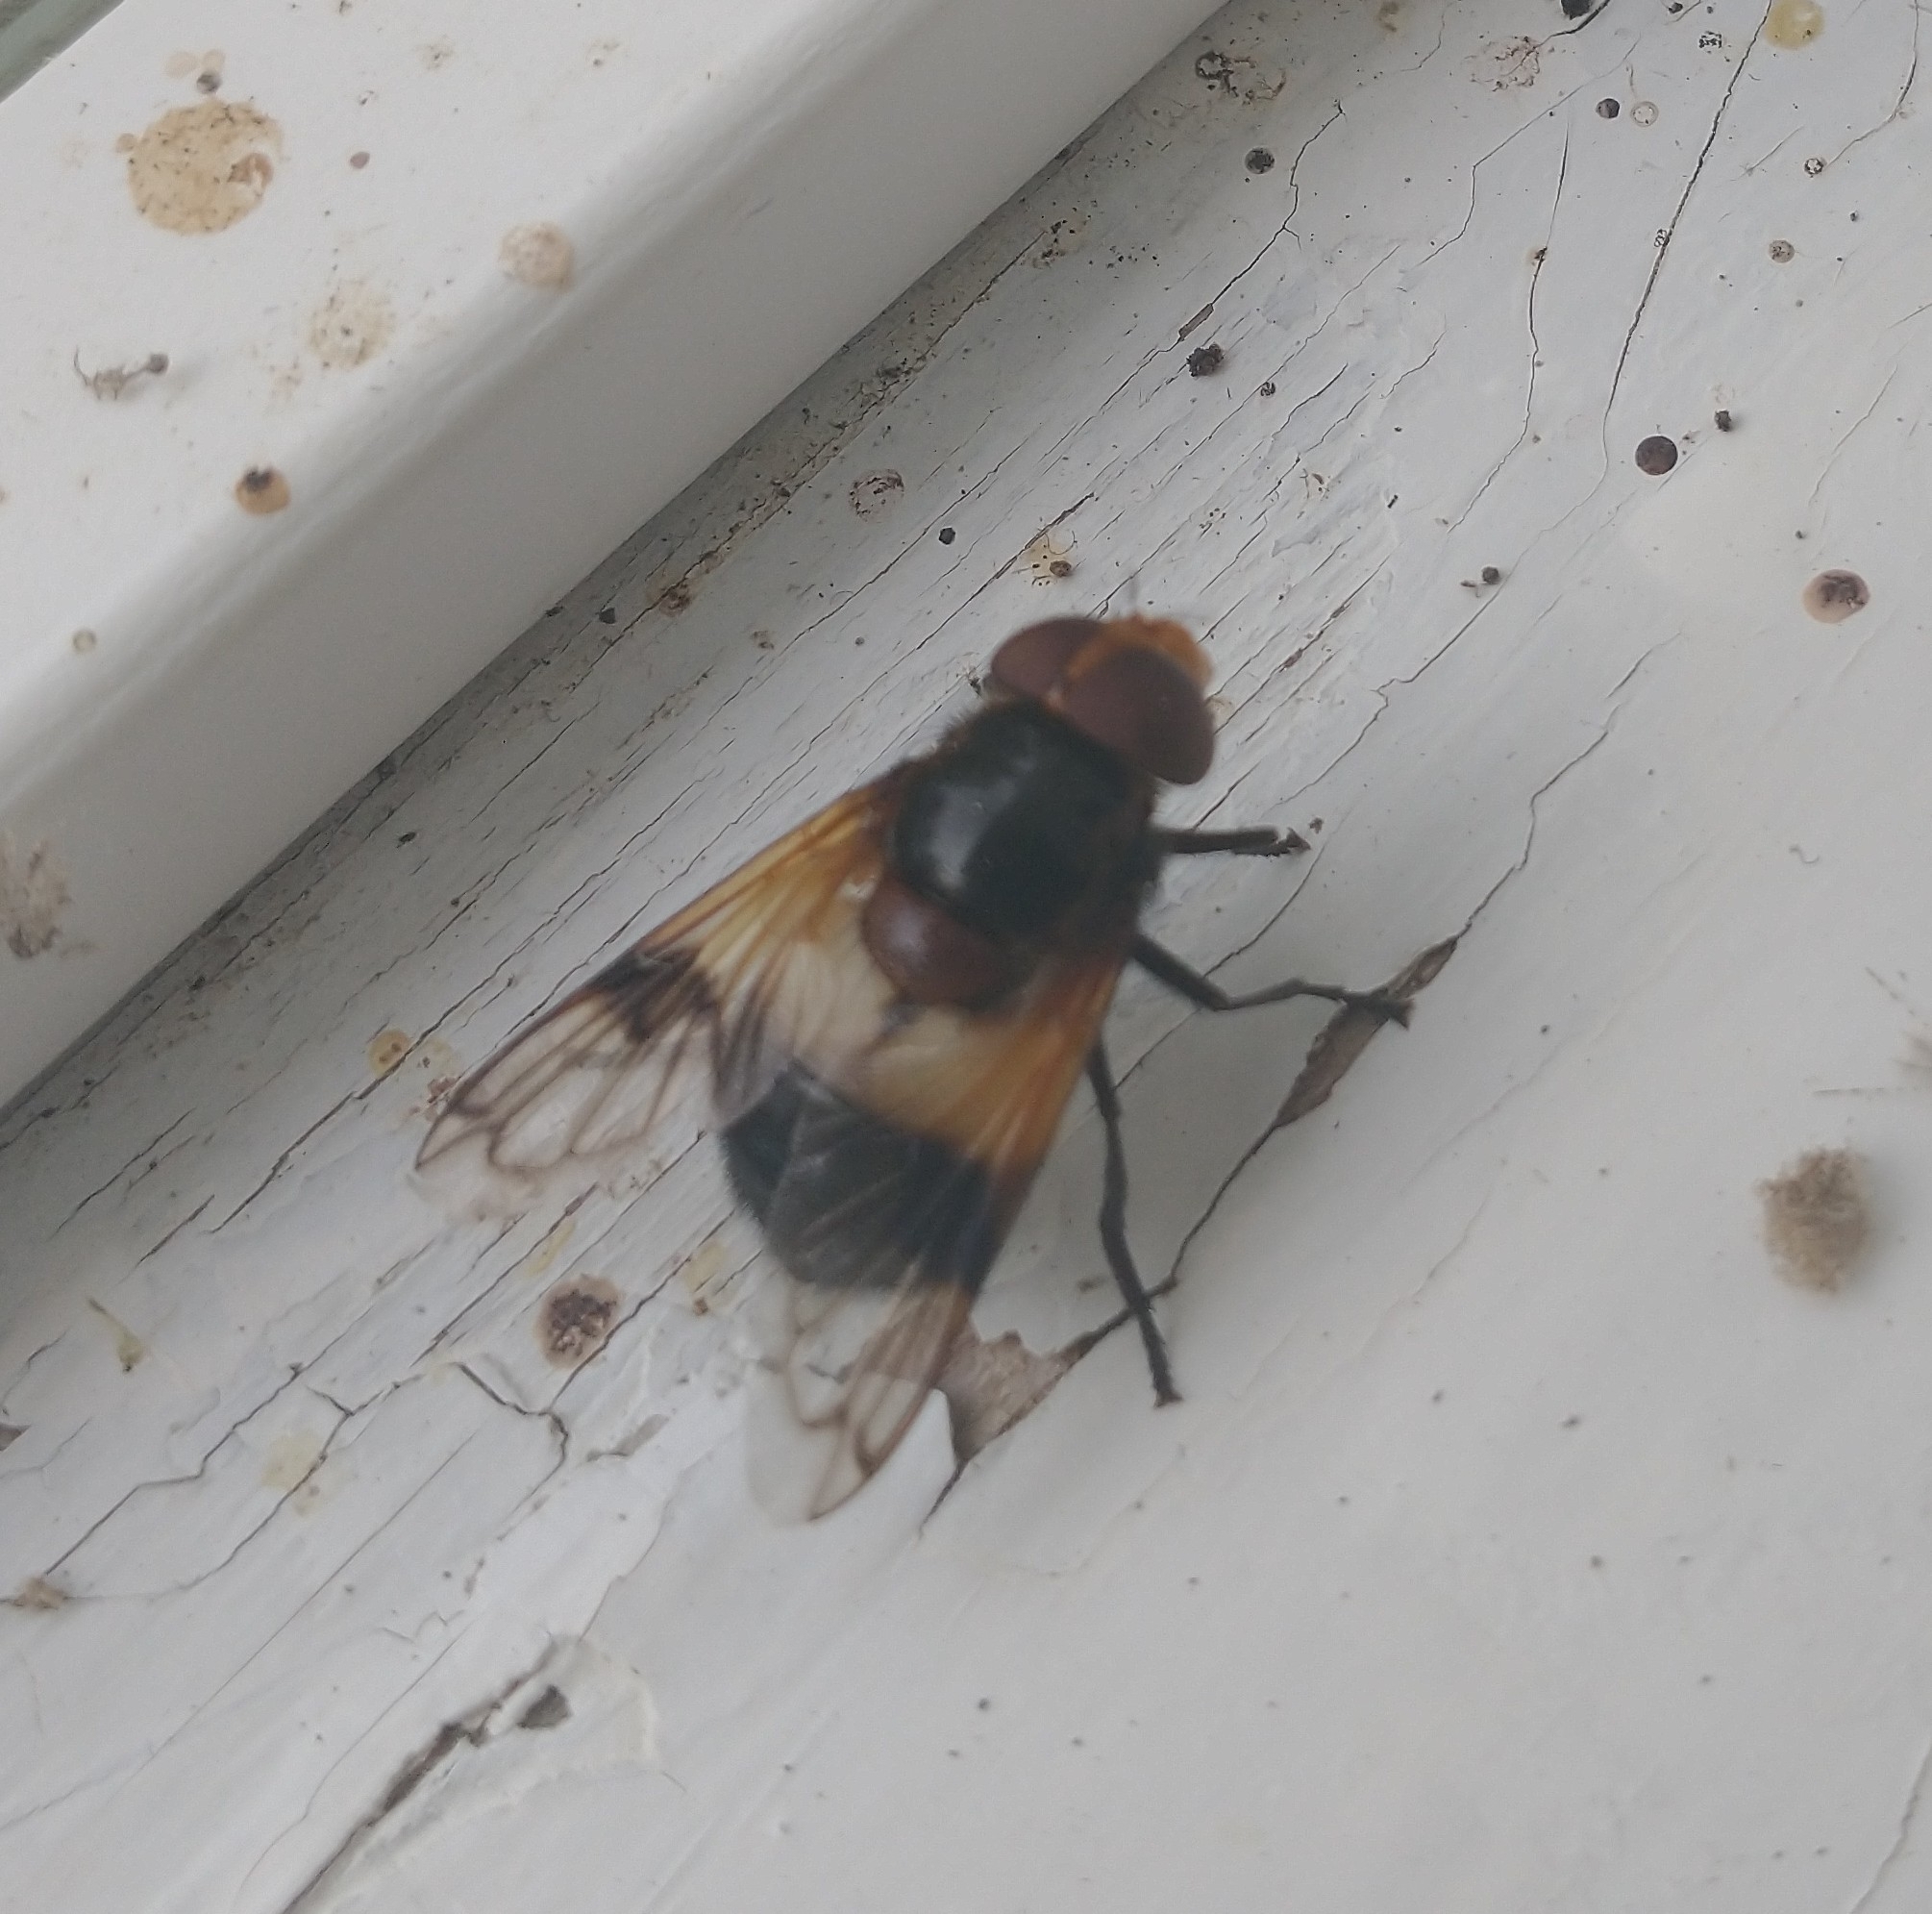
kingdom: Animalia
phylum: Arthropoda
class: Insecta
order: Diptera
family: Syrphidae
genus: Volucella
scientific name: Volucella pellucens
